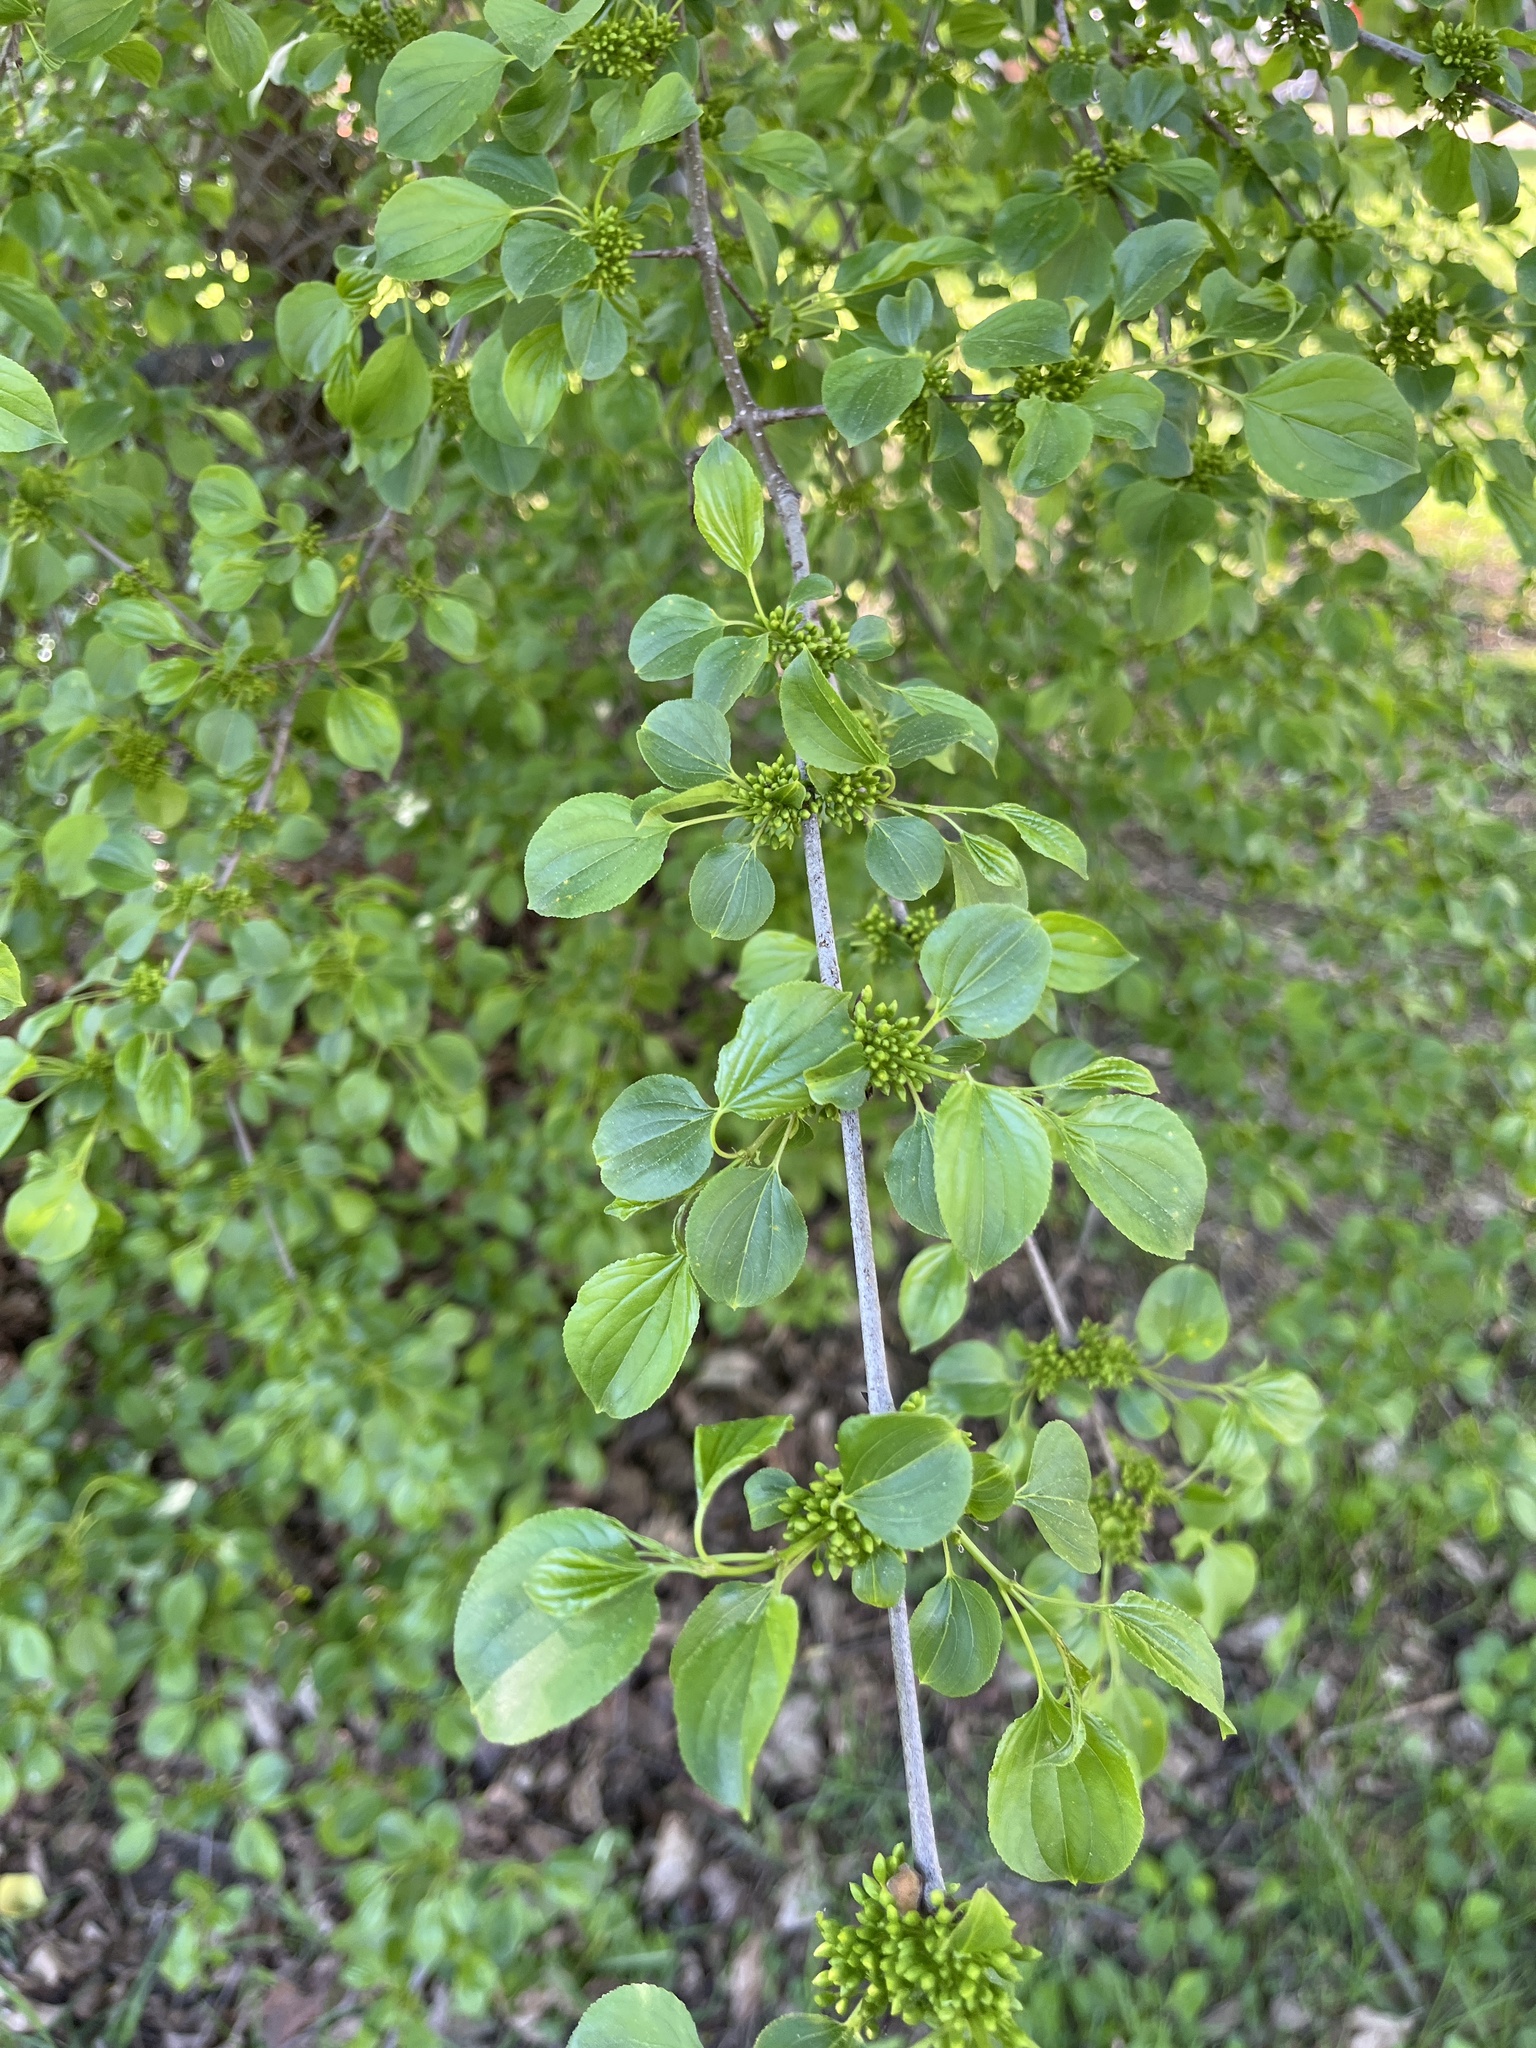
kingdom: Plantae
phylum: Tracheophyta
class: Magnoliopsida
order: Rosales
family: Rhamnaceae
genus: Rhamnus
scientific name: Rhamnus cathartica
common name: Common buckthorn
